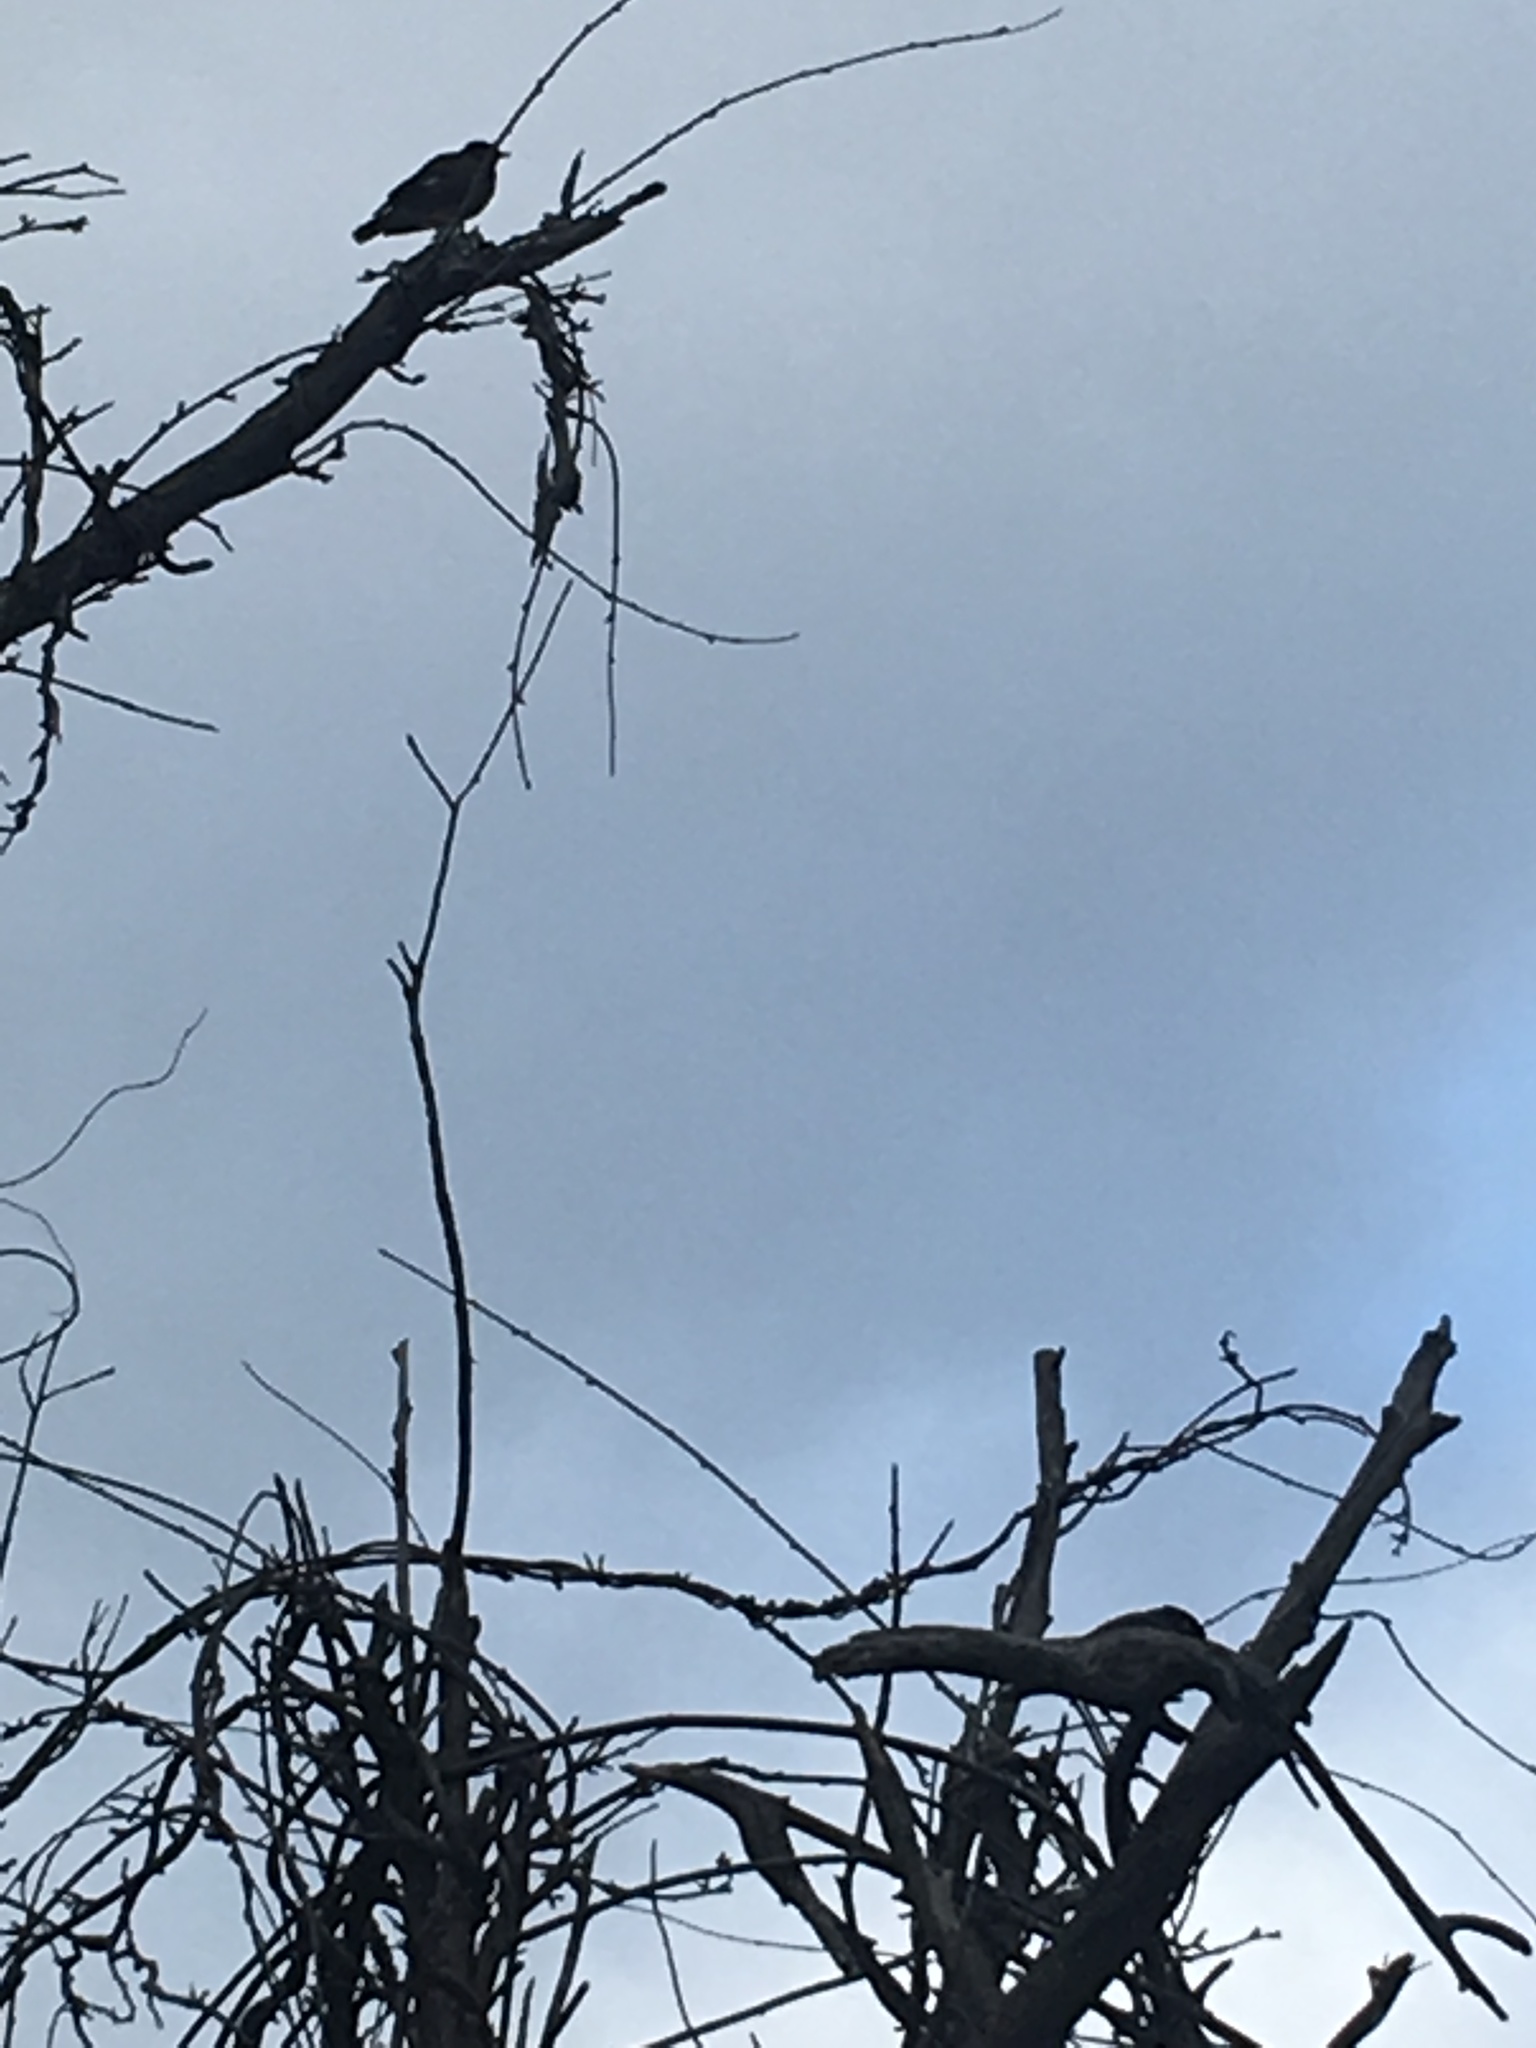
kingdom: Animalia
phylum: Chordata
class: Aves
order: Passeriformes
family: Sturnidae
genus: Acridotheres
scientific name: Acridotheres tristis
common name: Common myna
